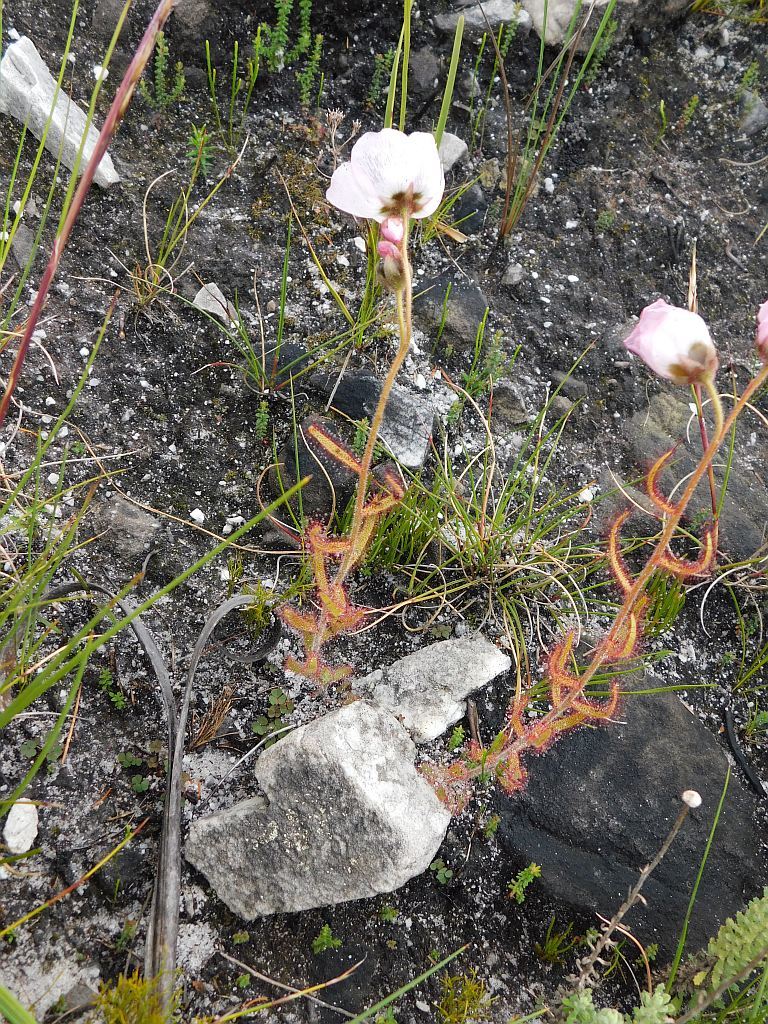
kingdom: Plantae
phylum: Tracheophyta
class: Magnoliopsida
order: Caryophyllales
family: Droseraceae
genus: Drosera
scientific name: Drosera cistiflora
